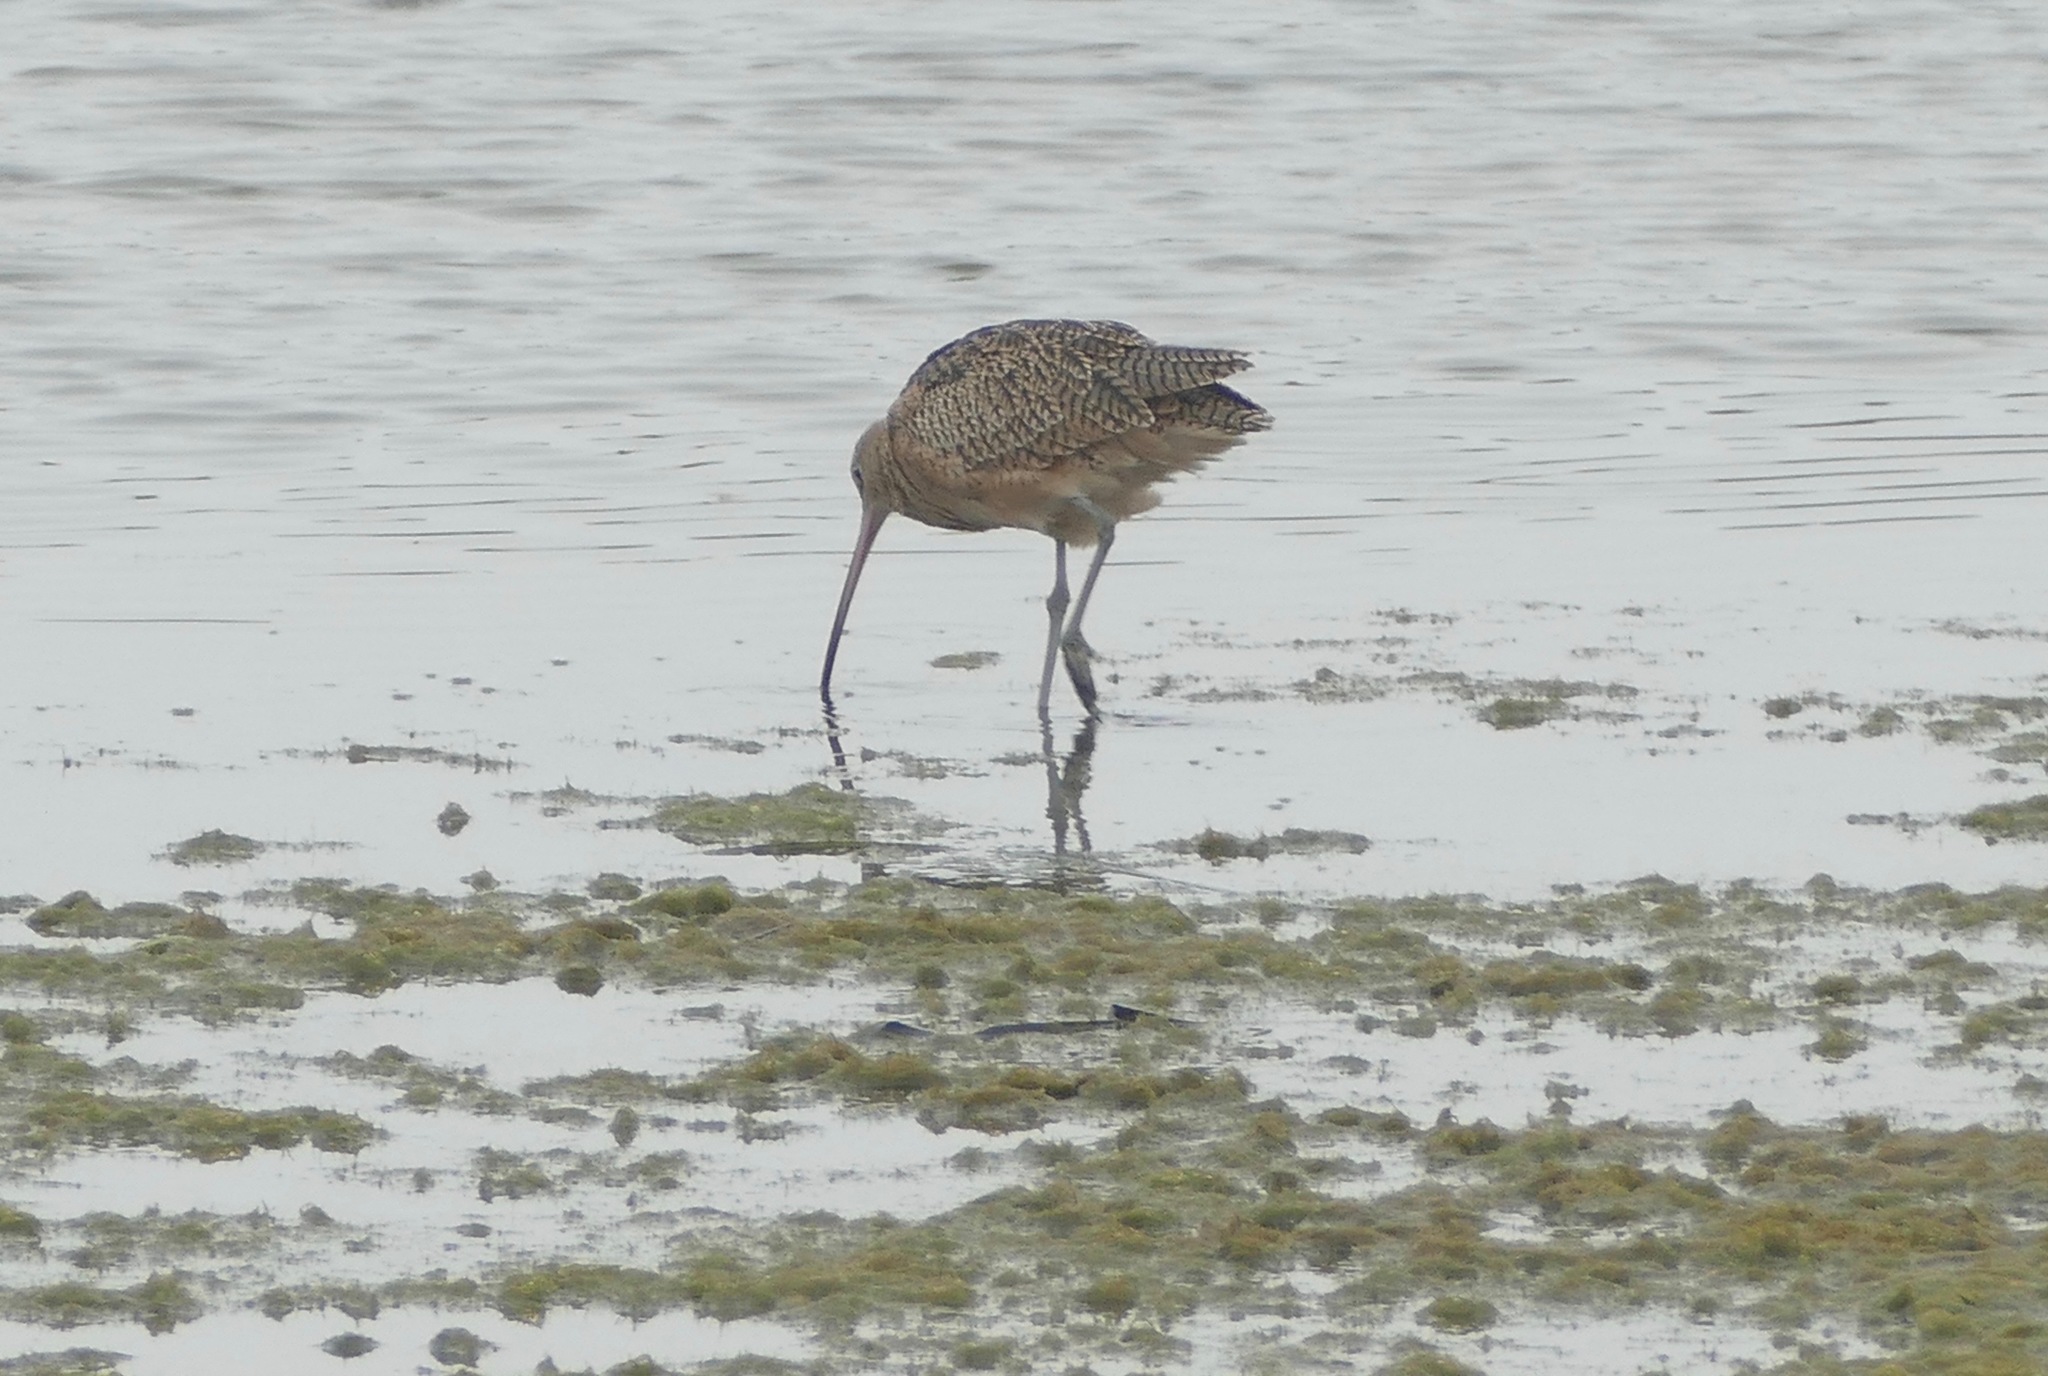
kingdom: Animalia
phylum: Chordata
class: Aves
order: Charadriiformes
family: Scolopacidae
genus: Numenius
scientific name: Numenius americanus
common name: Long-billed curlew
